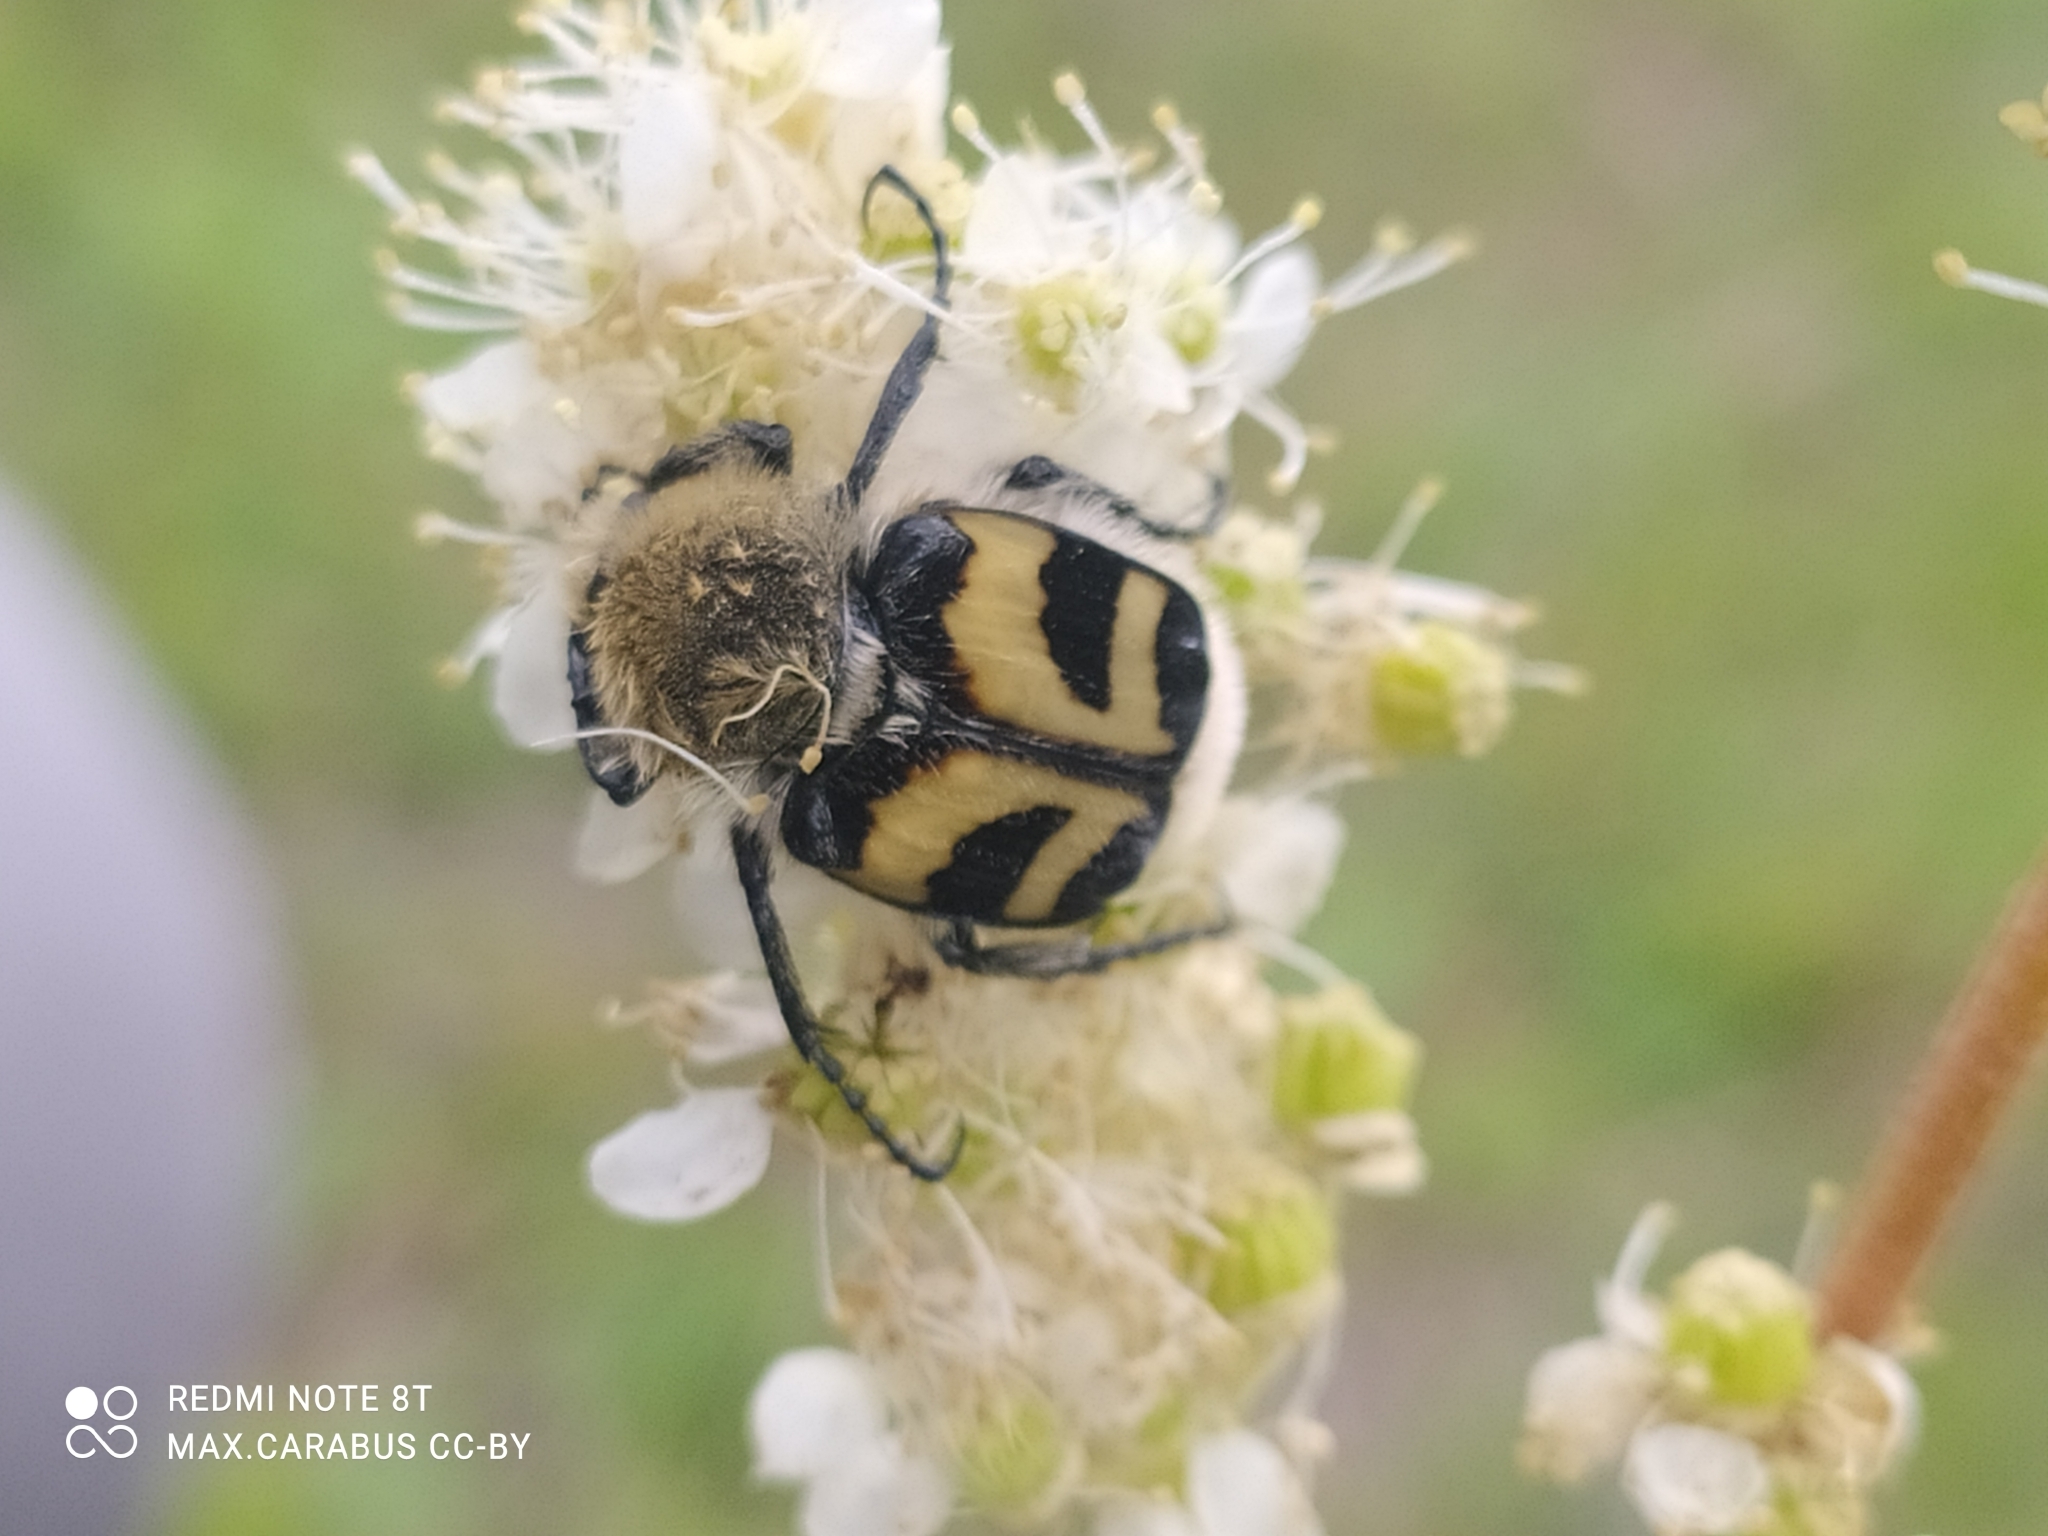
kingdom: Animalia
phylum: Arthropoda
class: Insecta
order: Coleoptera
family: Scarabaeidae
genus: Trichius
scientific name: Trichius fasciatus
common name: Bee beetle
